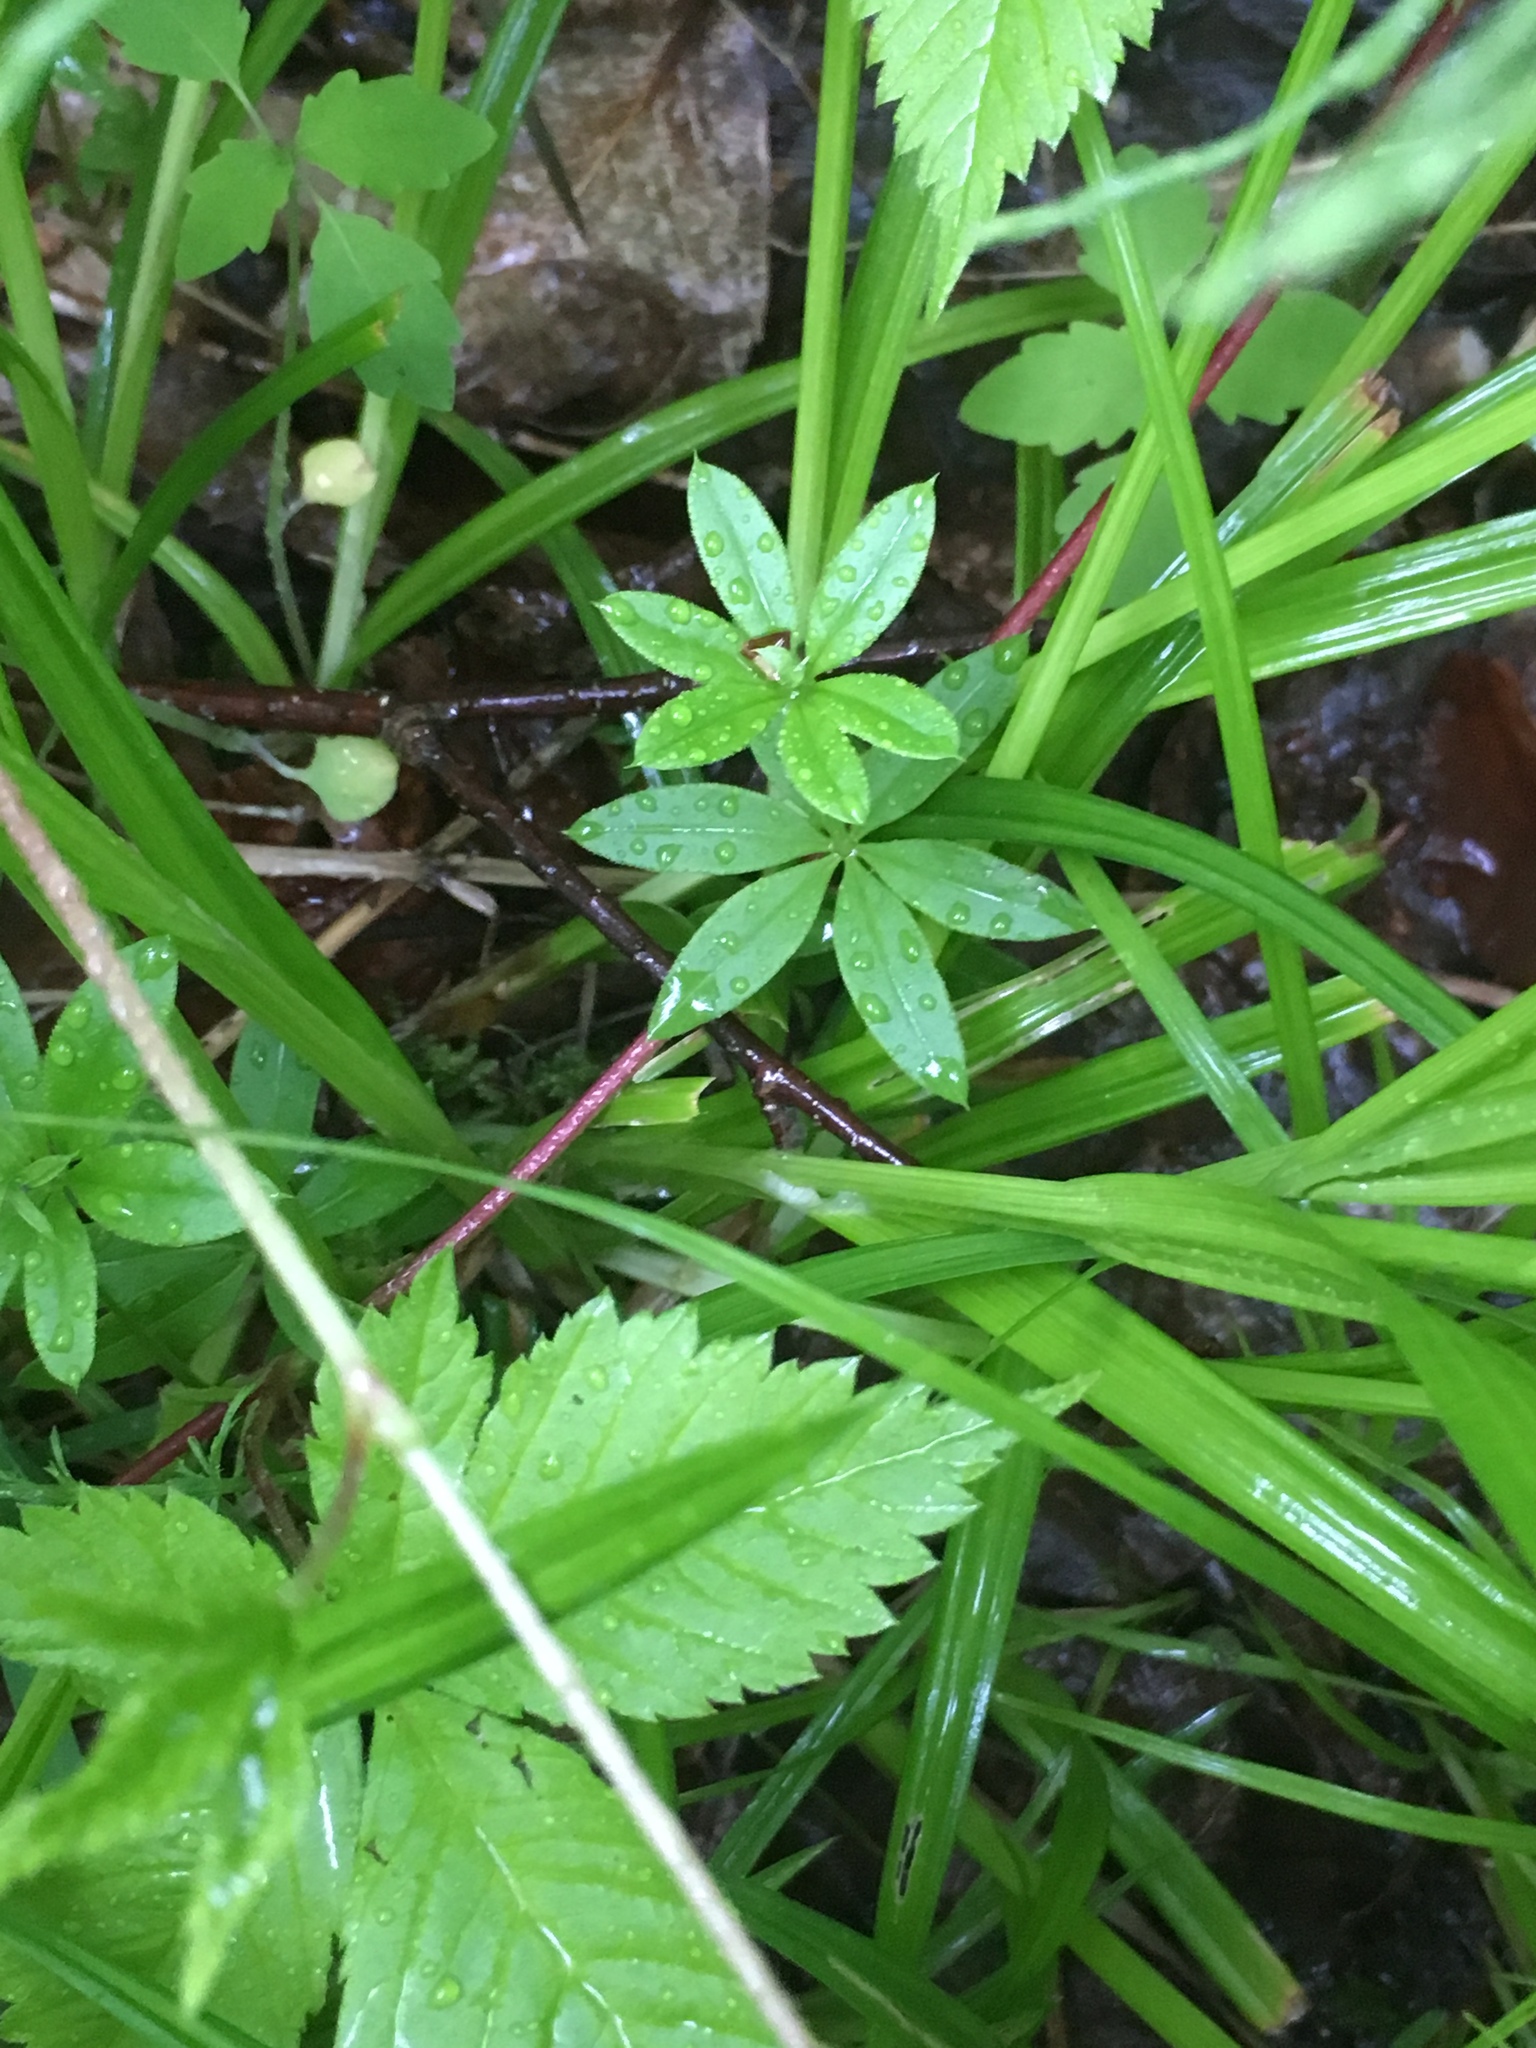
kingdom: Plantae
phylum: Tracheophyta
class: Magnoliopsida
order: Gentianales
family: Rubiaceae
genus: Galium
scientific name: Galium triflorum
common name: Fragrant bedstraw
